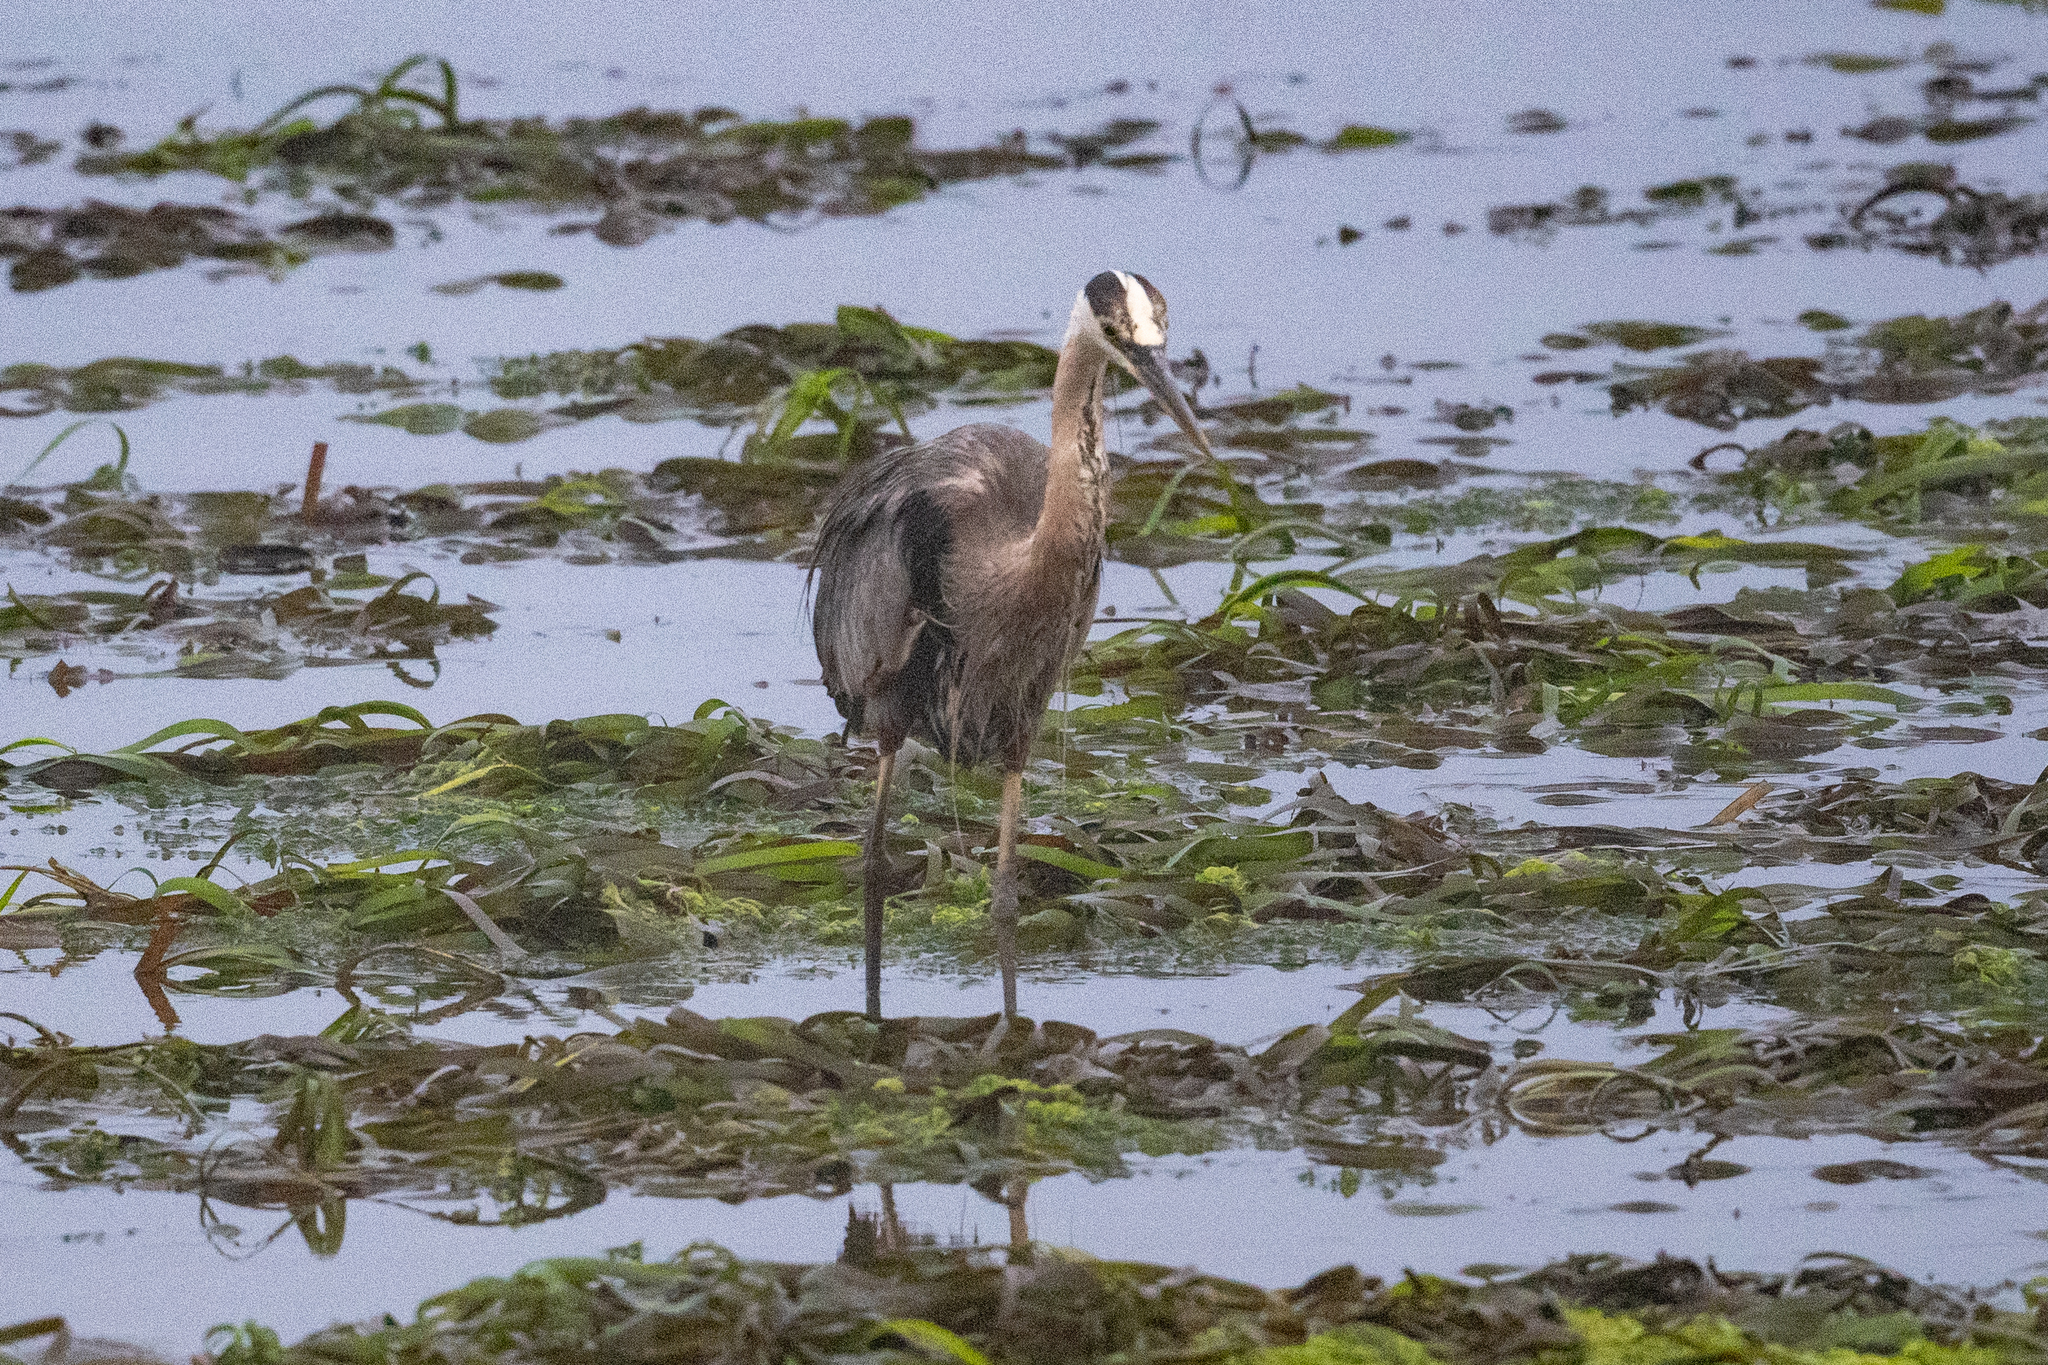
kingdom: Animalia
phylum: Chordata
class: Aves
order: Pelecaniformes
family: Ardeidae
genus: Ardea
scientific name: Ardea herodias
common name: Great blue heron
